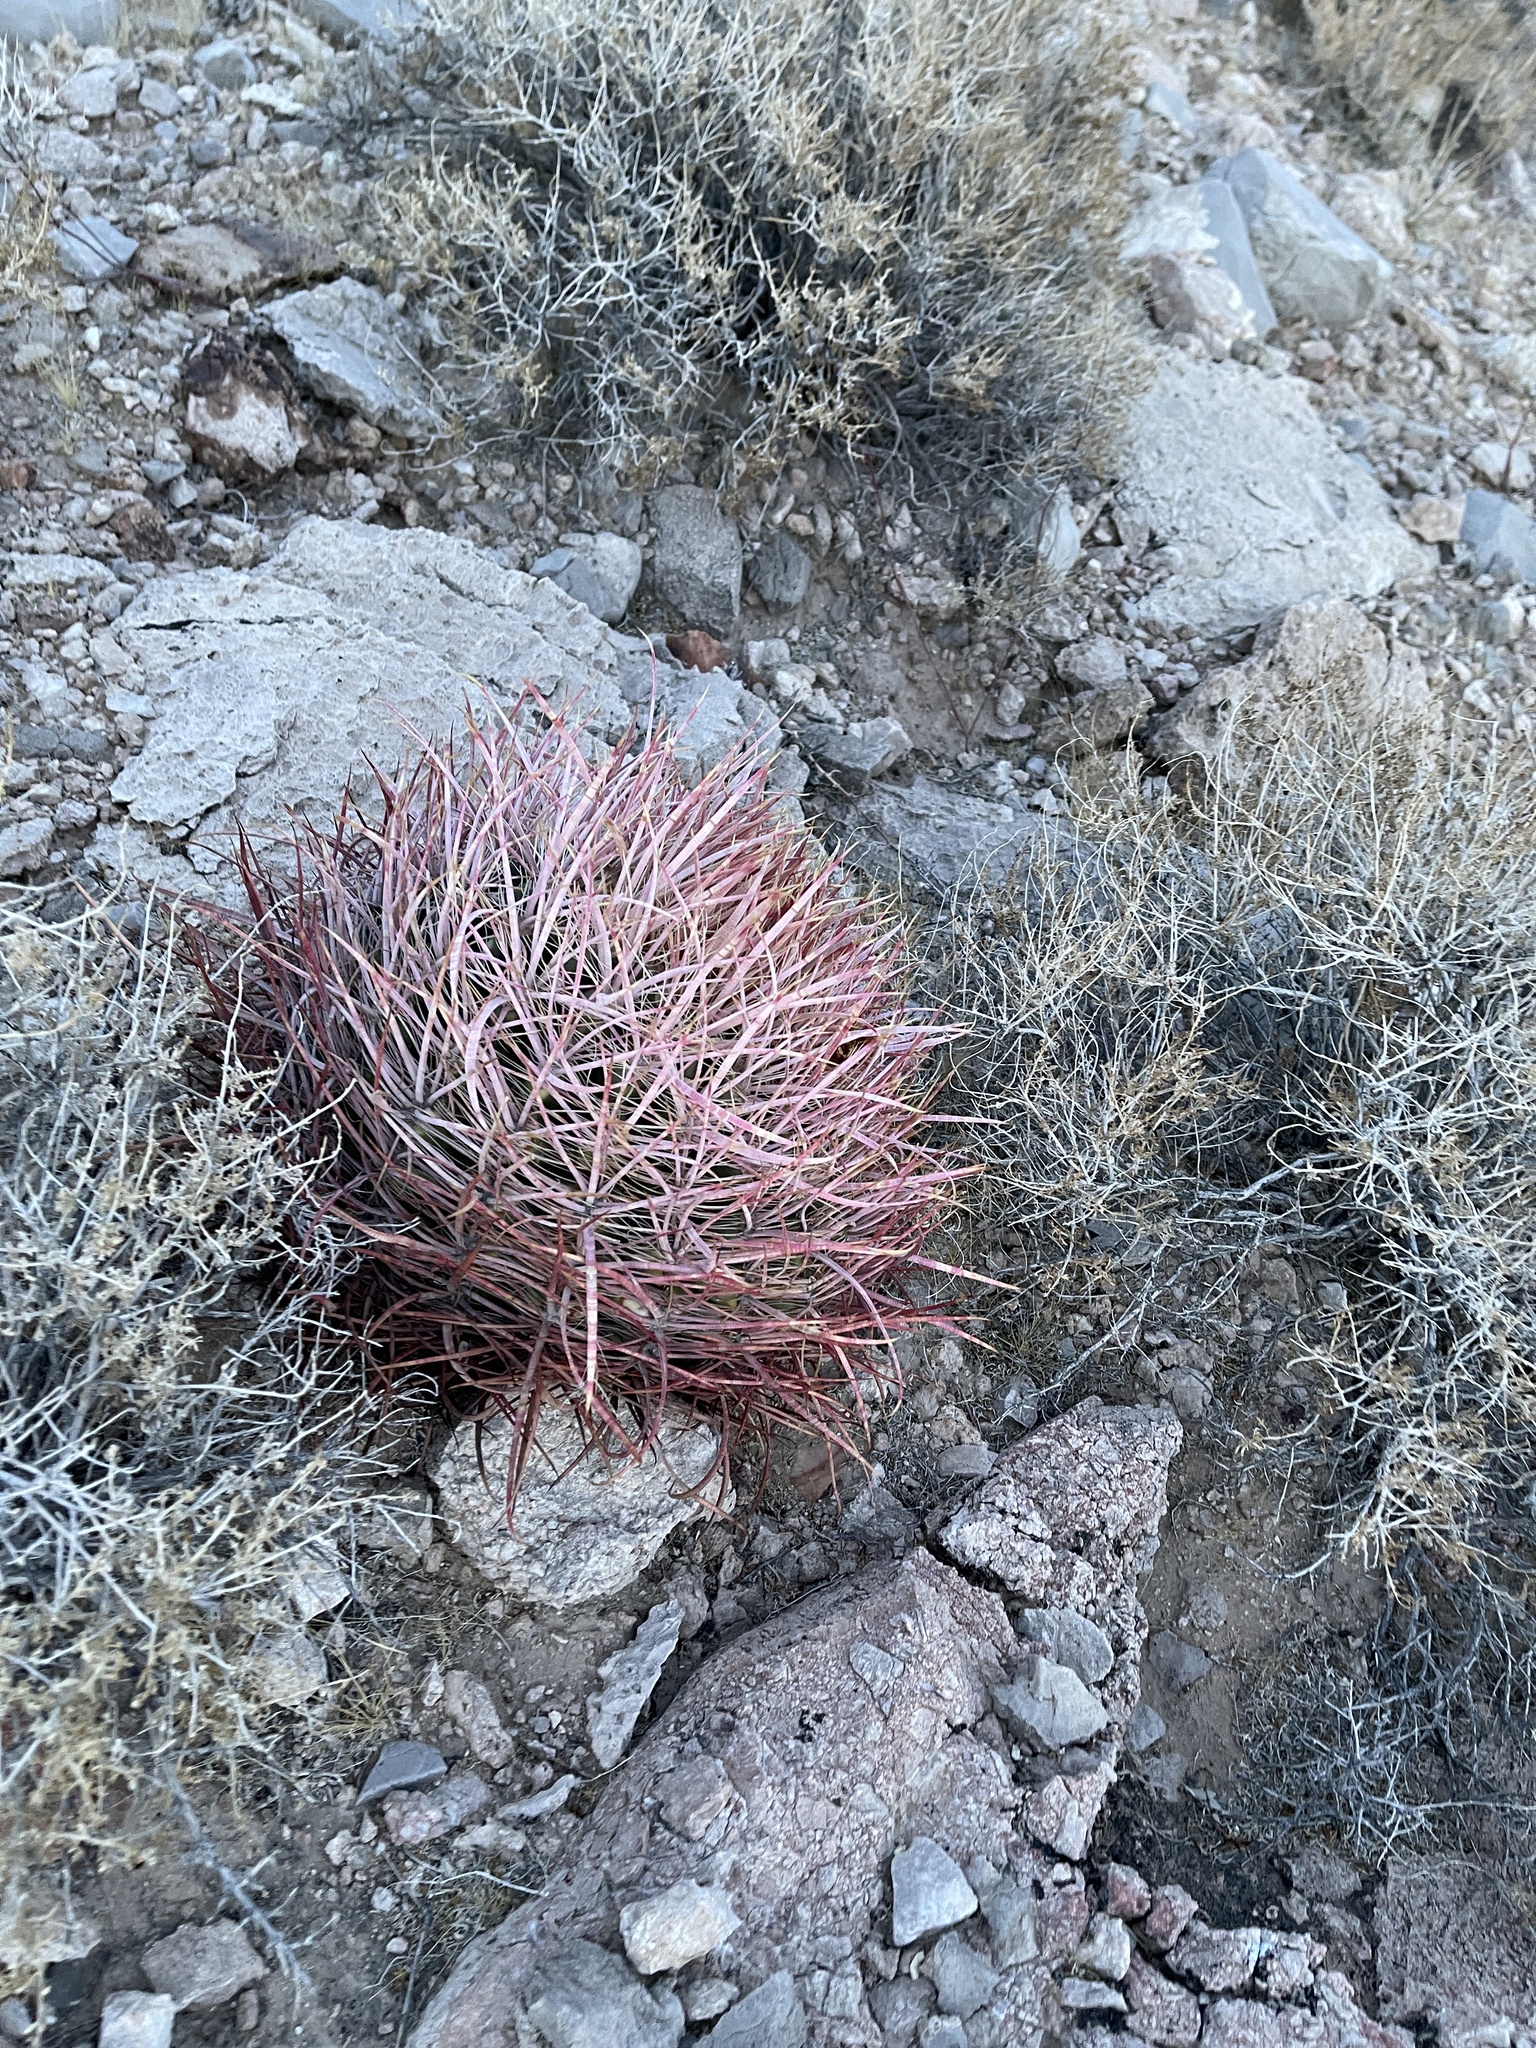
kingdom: Plantae
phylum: Tracheophyta
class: Magnoliopsida
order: Caryophyllales
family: Cactaceae
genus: Ferocactus
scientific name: Ferocactus cylindraceus
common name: California barrel cactus
